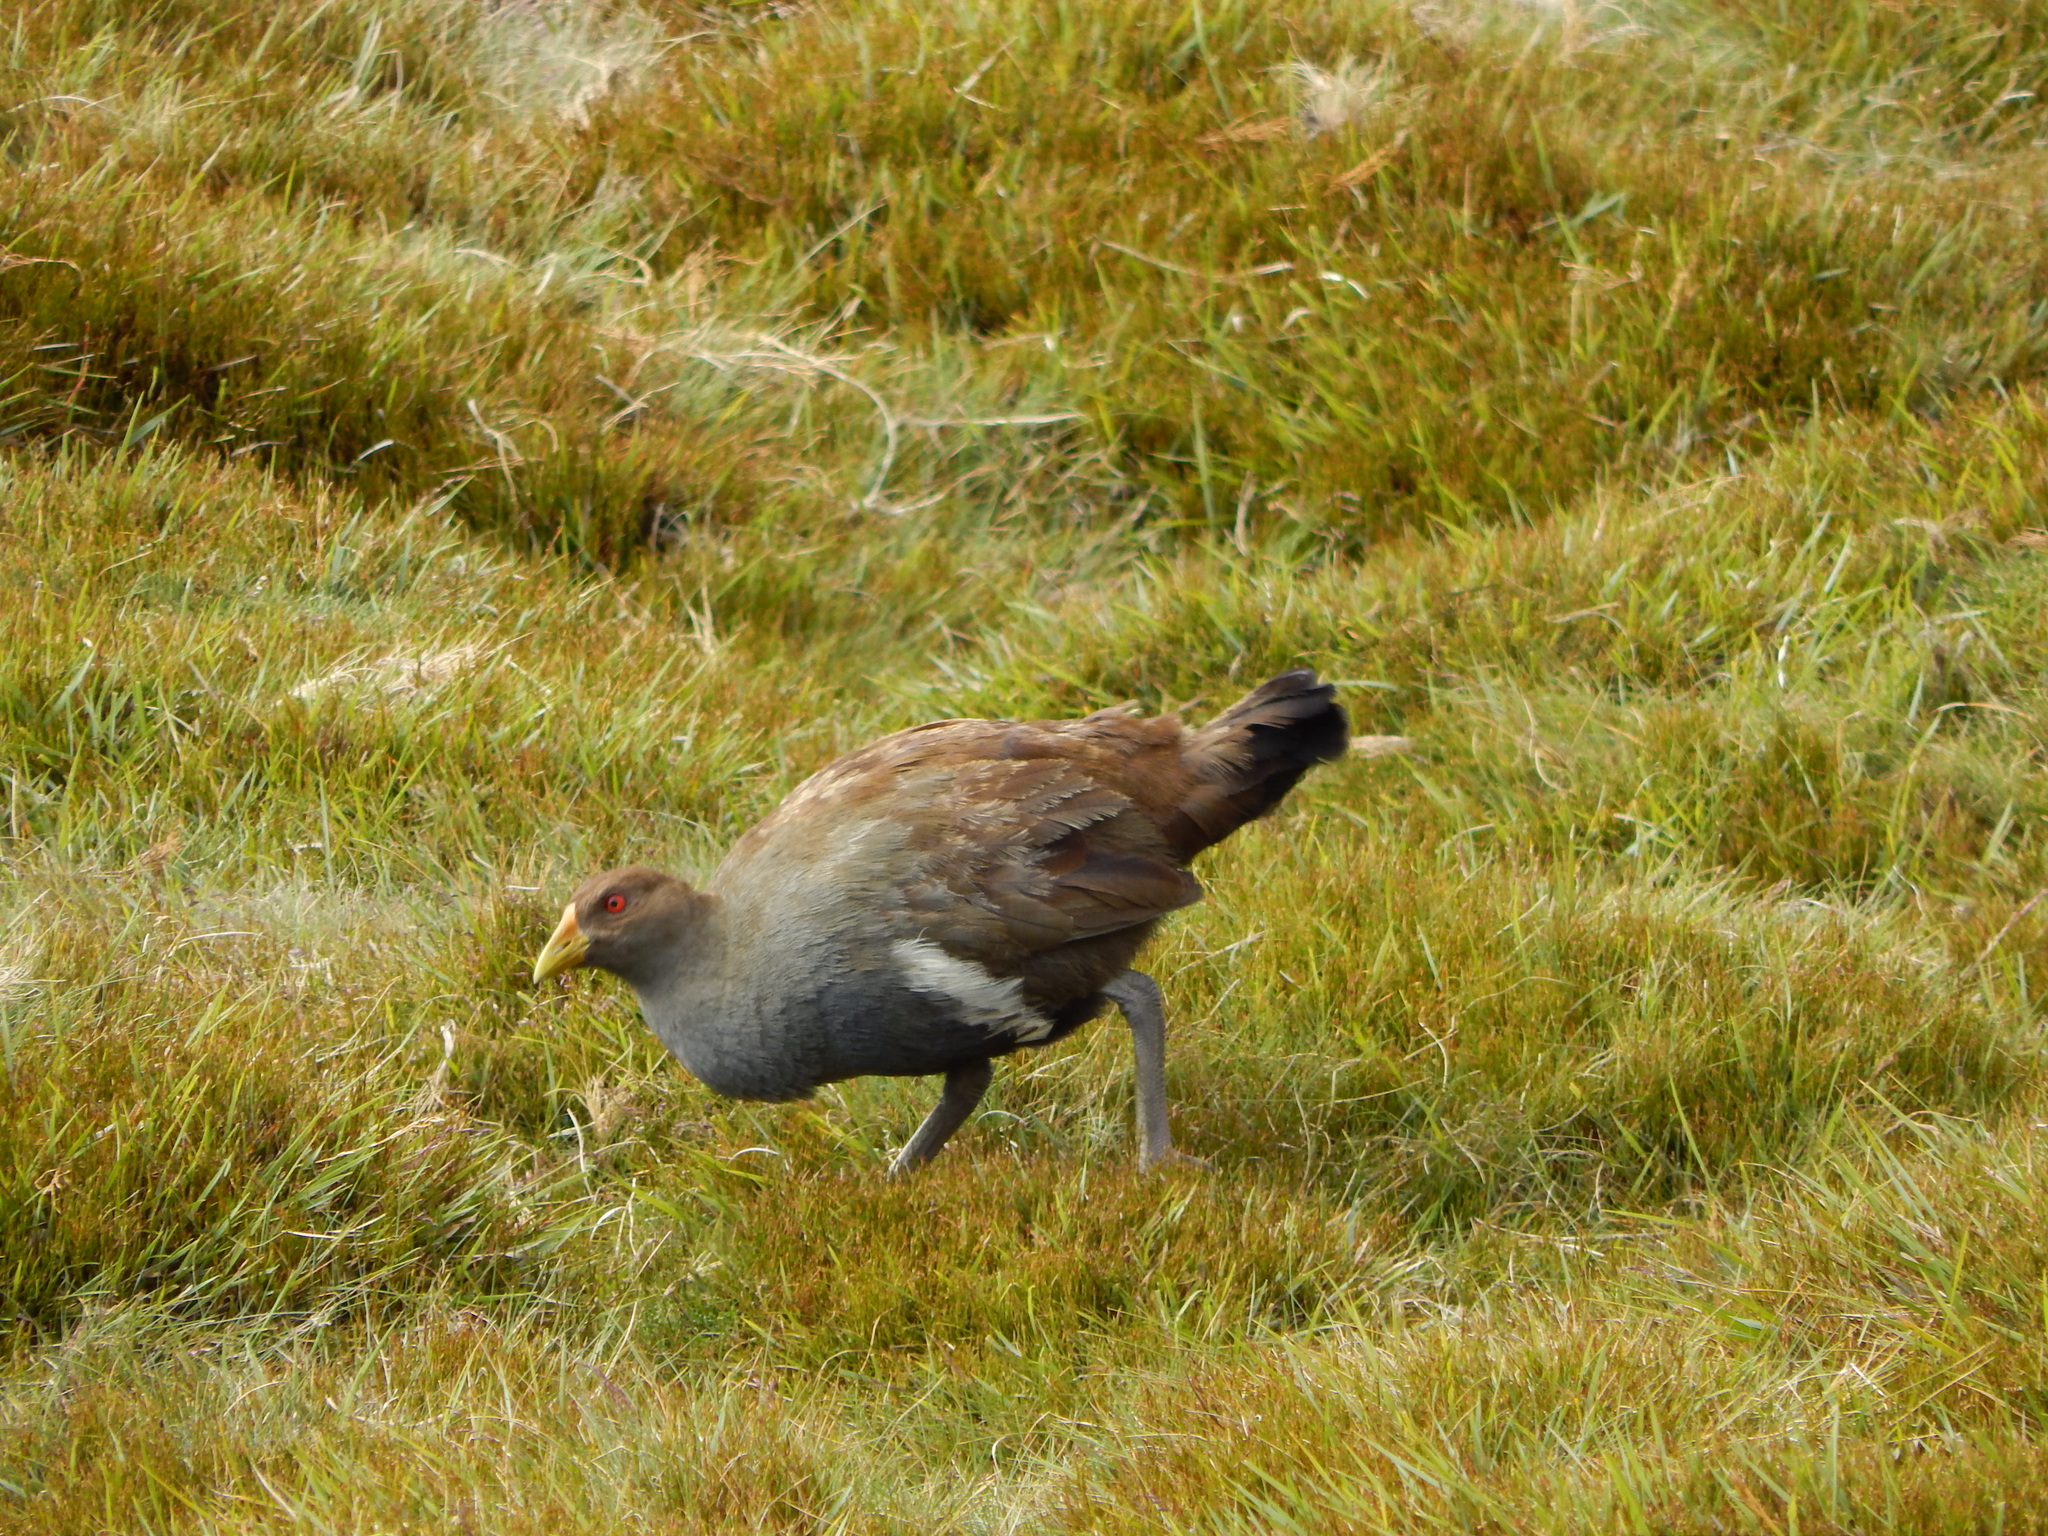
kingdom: Animalia
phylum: Chordata
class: Aves
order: Gruiformes
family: Rallidae
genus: Gallinula
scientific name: Gallinula mortierii
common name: Tasmanian nativehen
